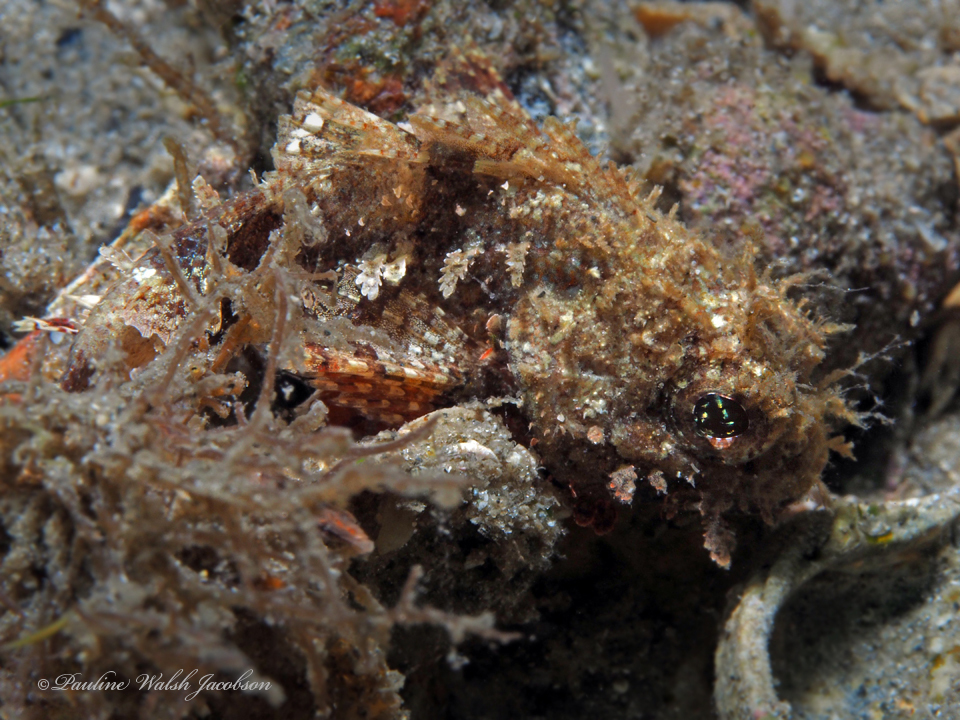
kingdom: Animalia
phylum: Chordata
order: Scorpaeniformes
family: Scorpaenidae
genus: Scorpaena
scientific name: Scorpaena plumieri
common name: Spotted scorpionfish
